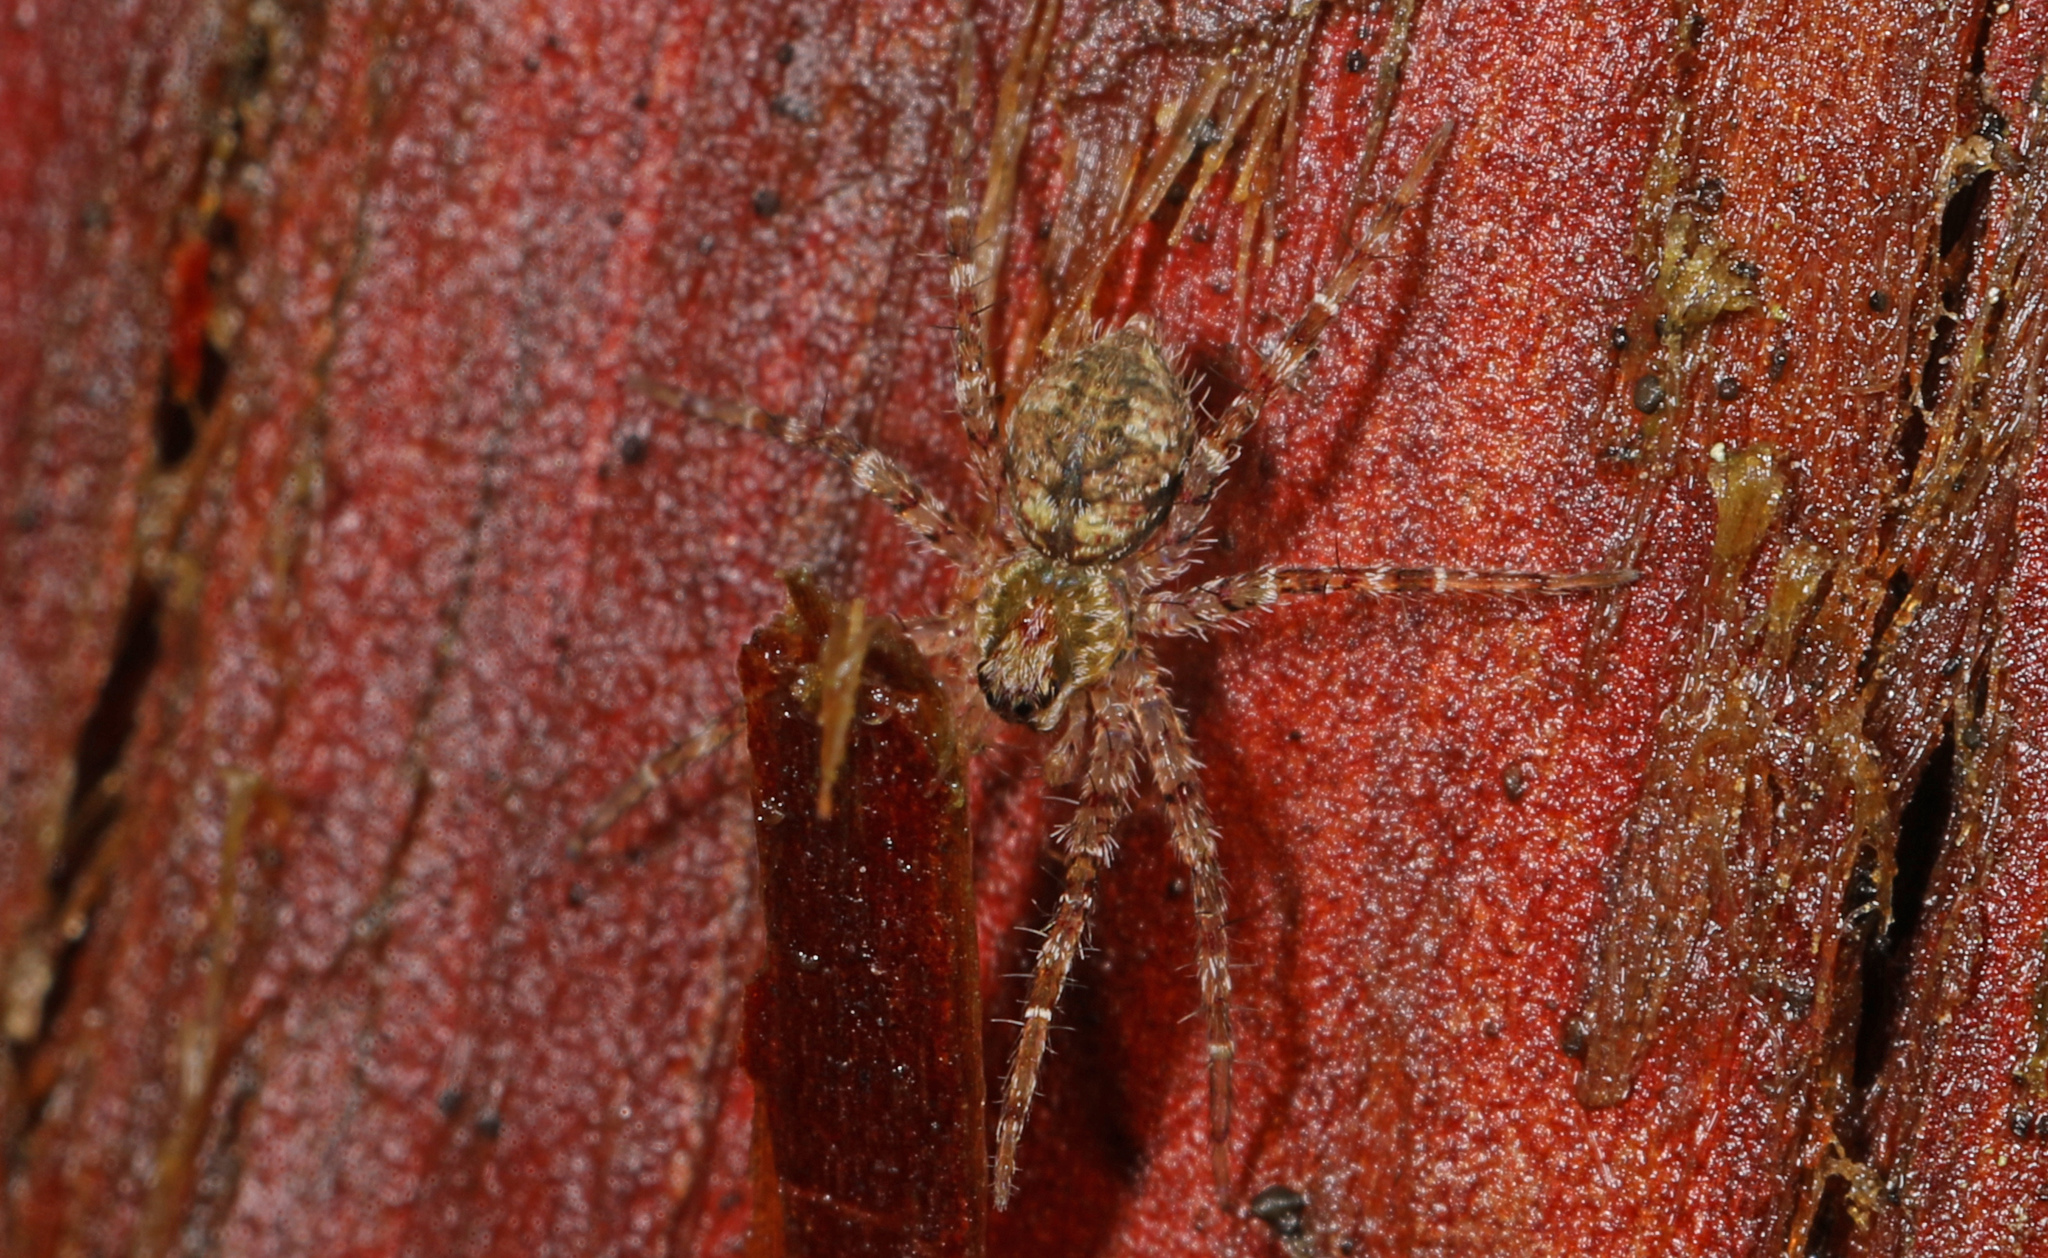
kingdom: Animalia
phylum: Arthropoda
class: Arachnida
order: Araneae
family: Pisauridae
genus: Dolomedes
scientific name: Dolomedes albineus
